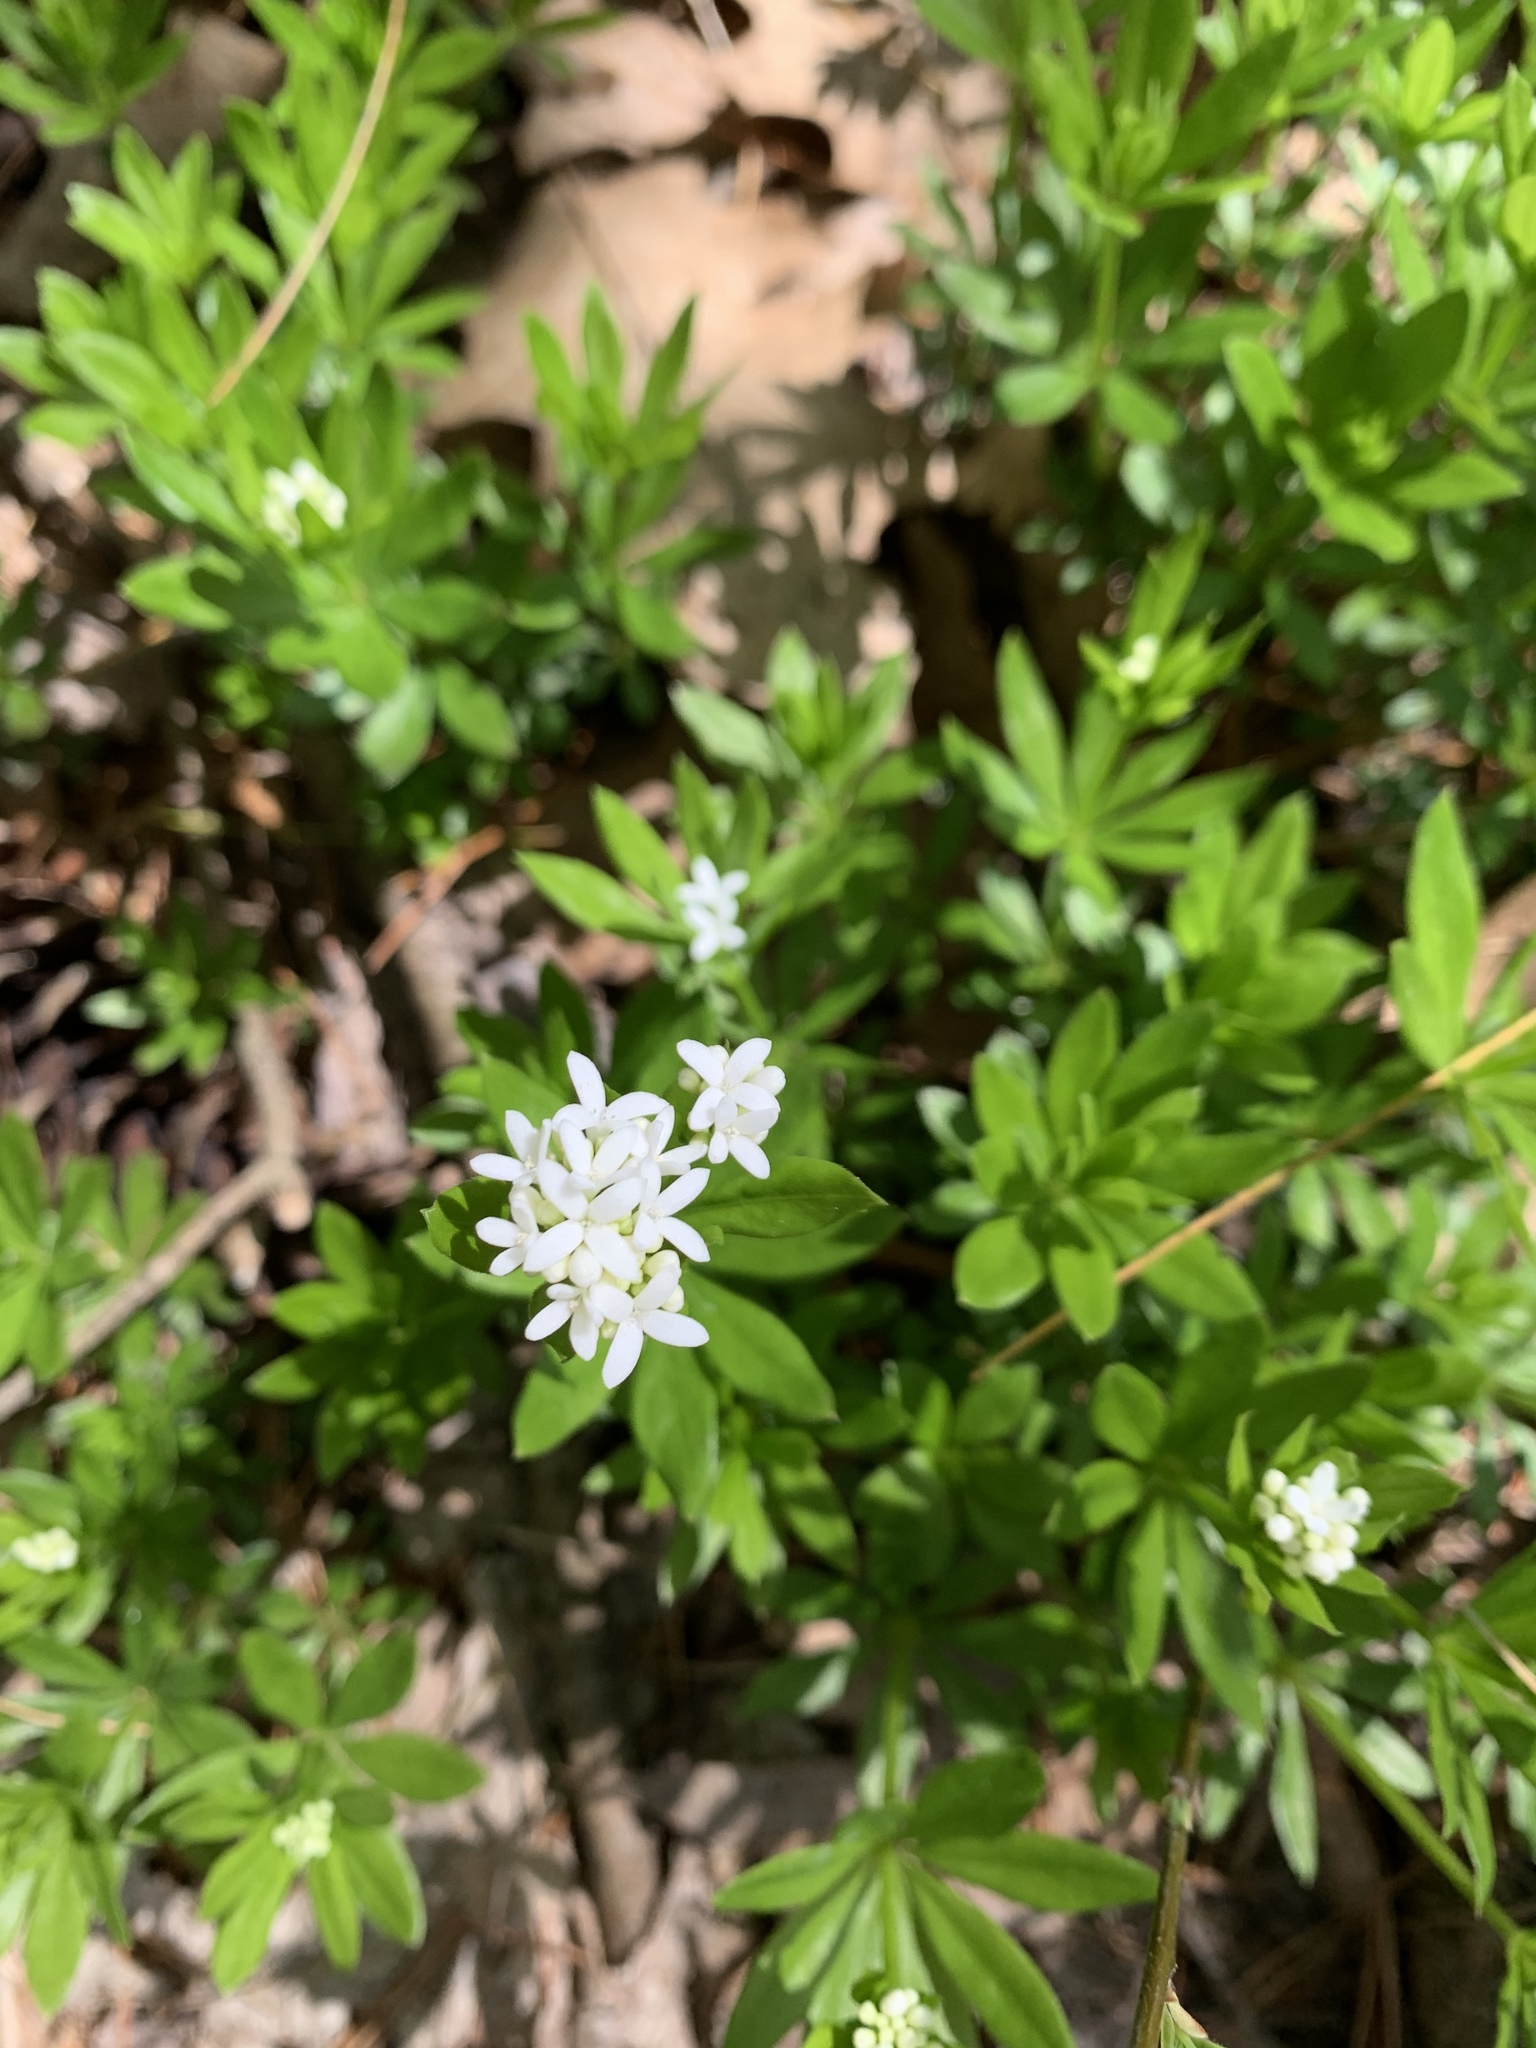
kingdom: Plantae
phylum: Tracheophyta
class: Magnoliopsida
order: Gentianales
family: Rubiaceae
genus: Galium
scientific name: Galium odoratum
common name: Sweet woodruff
